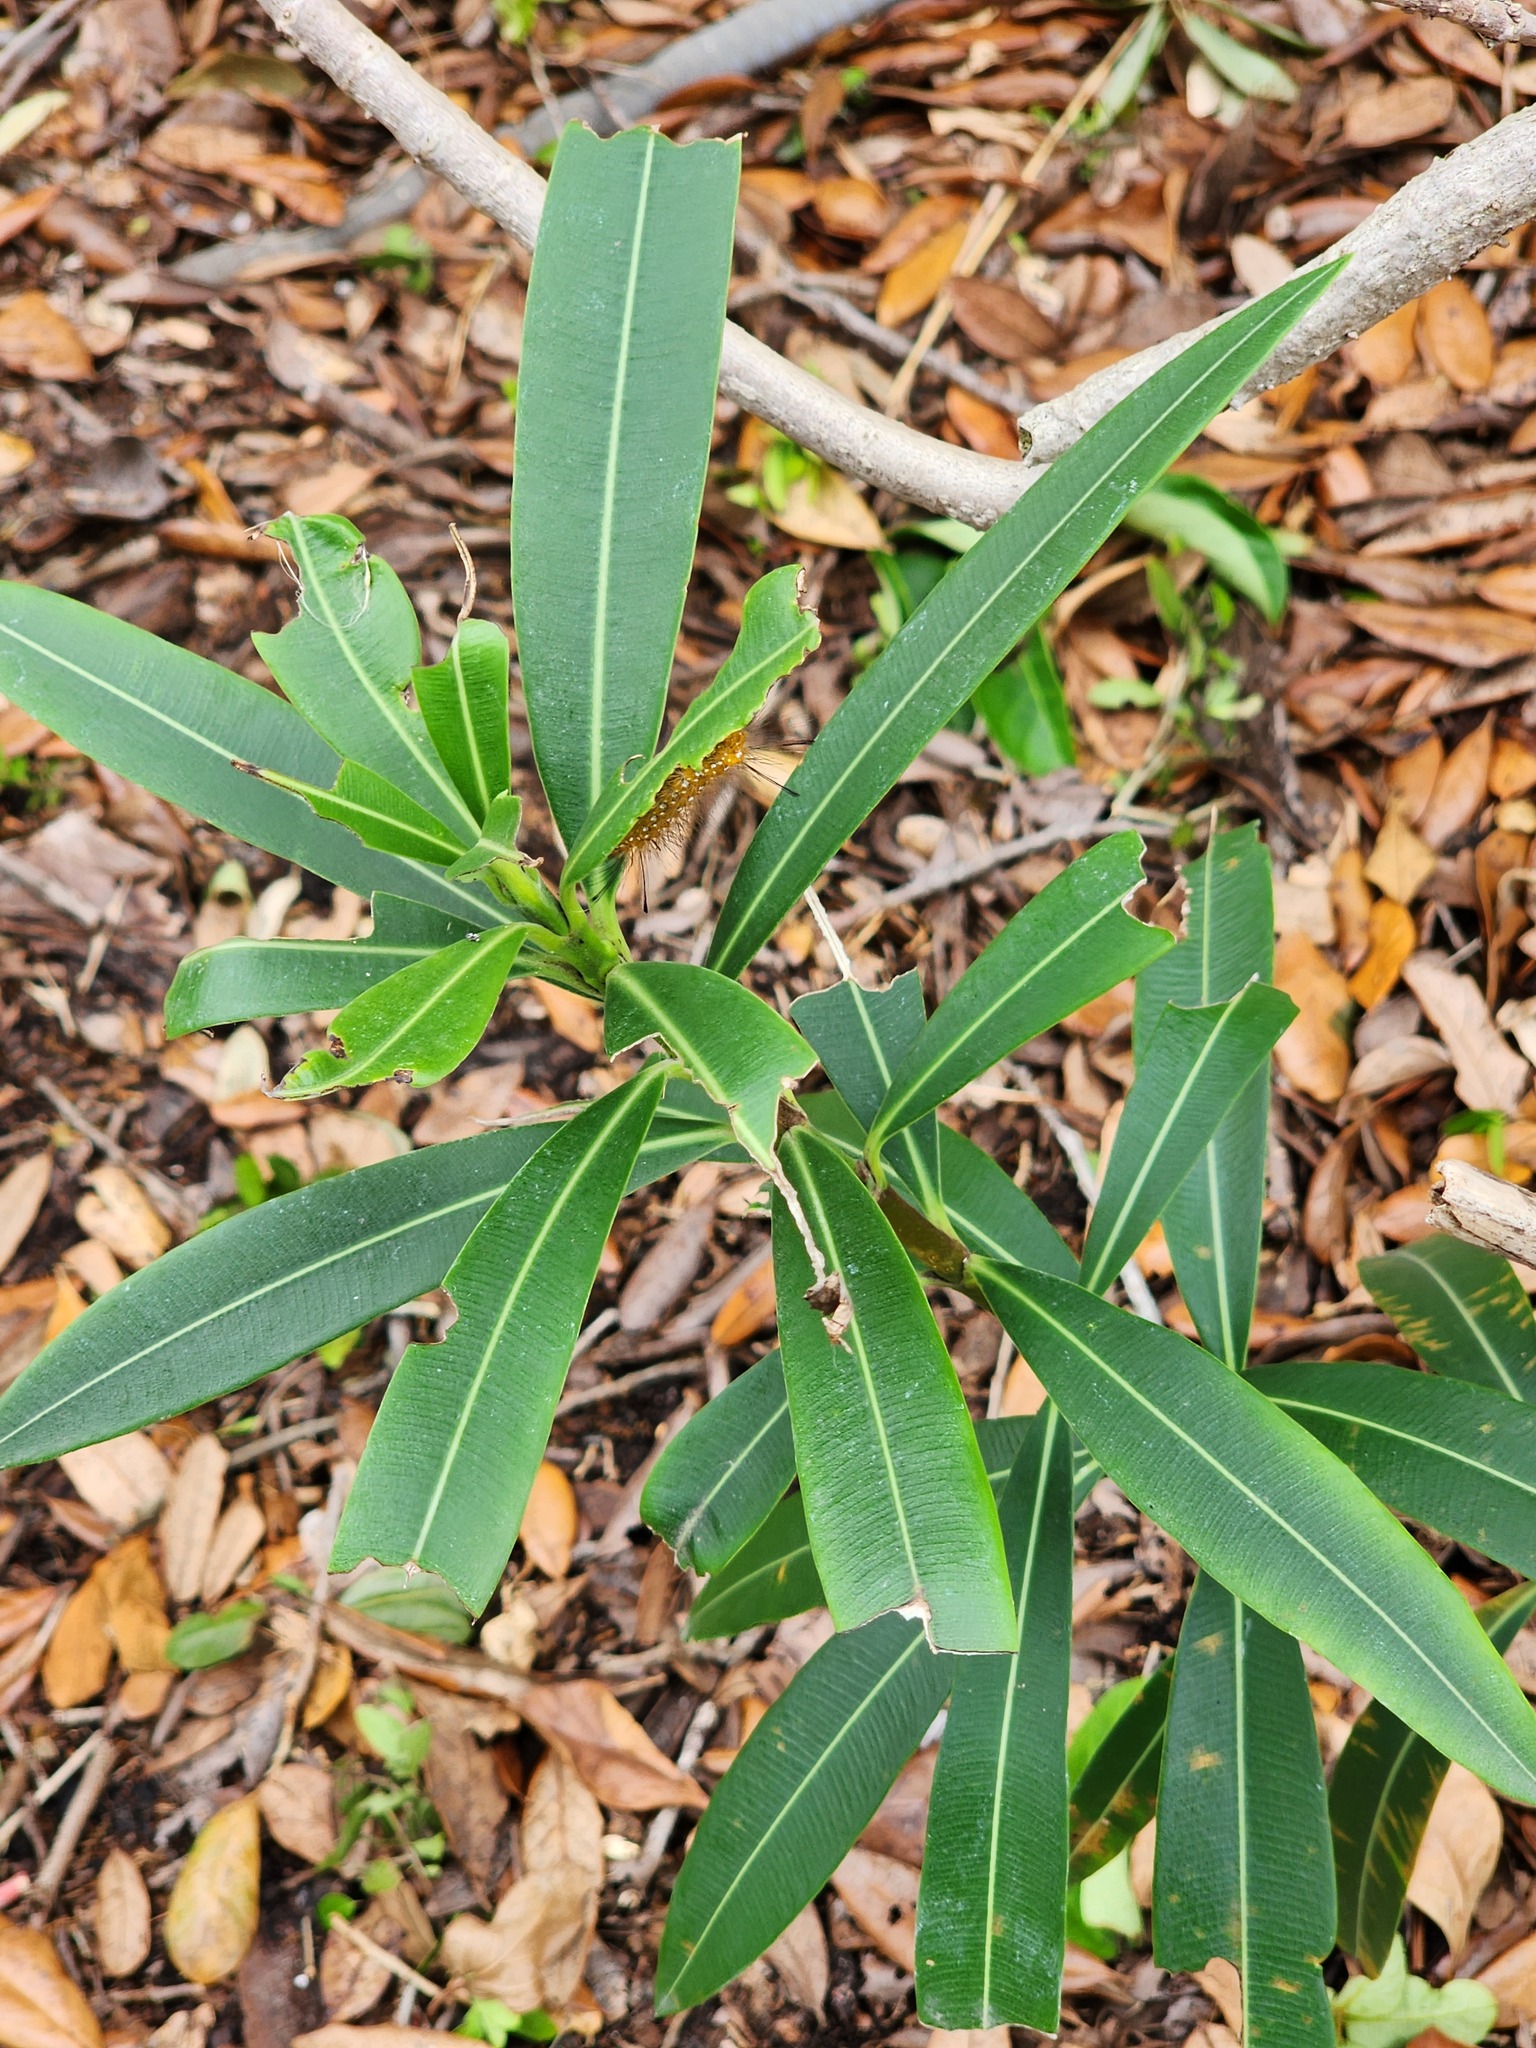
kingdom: Animalia
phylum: Arthropoda
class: Insecta
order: Lepidoptera
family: Erebidae
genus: Empyreuma
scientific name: Empyreuma pugione
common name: Spotted oleander caterpillar moth
